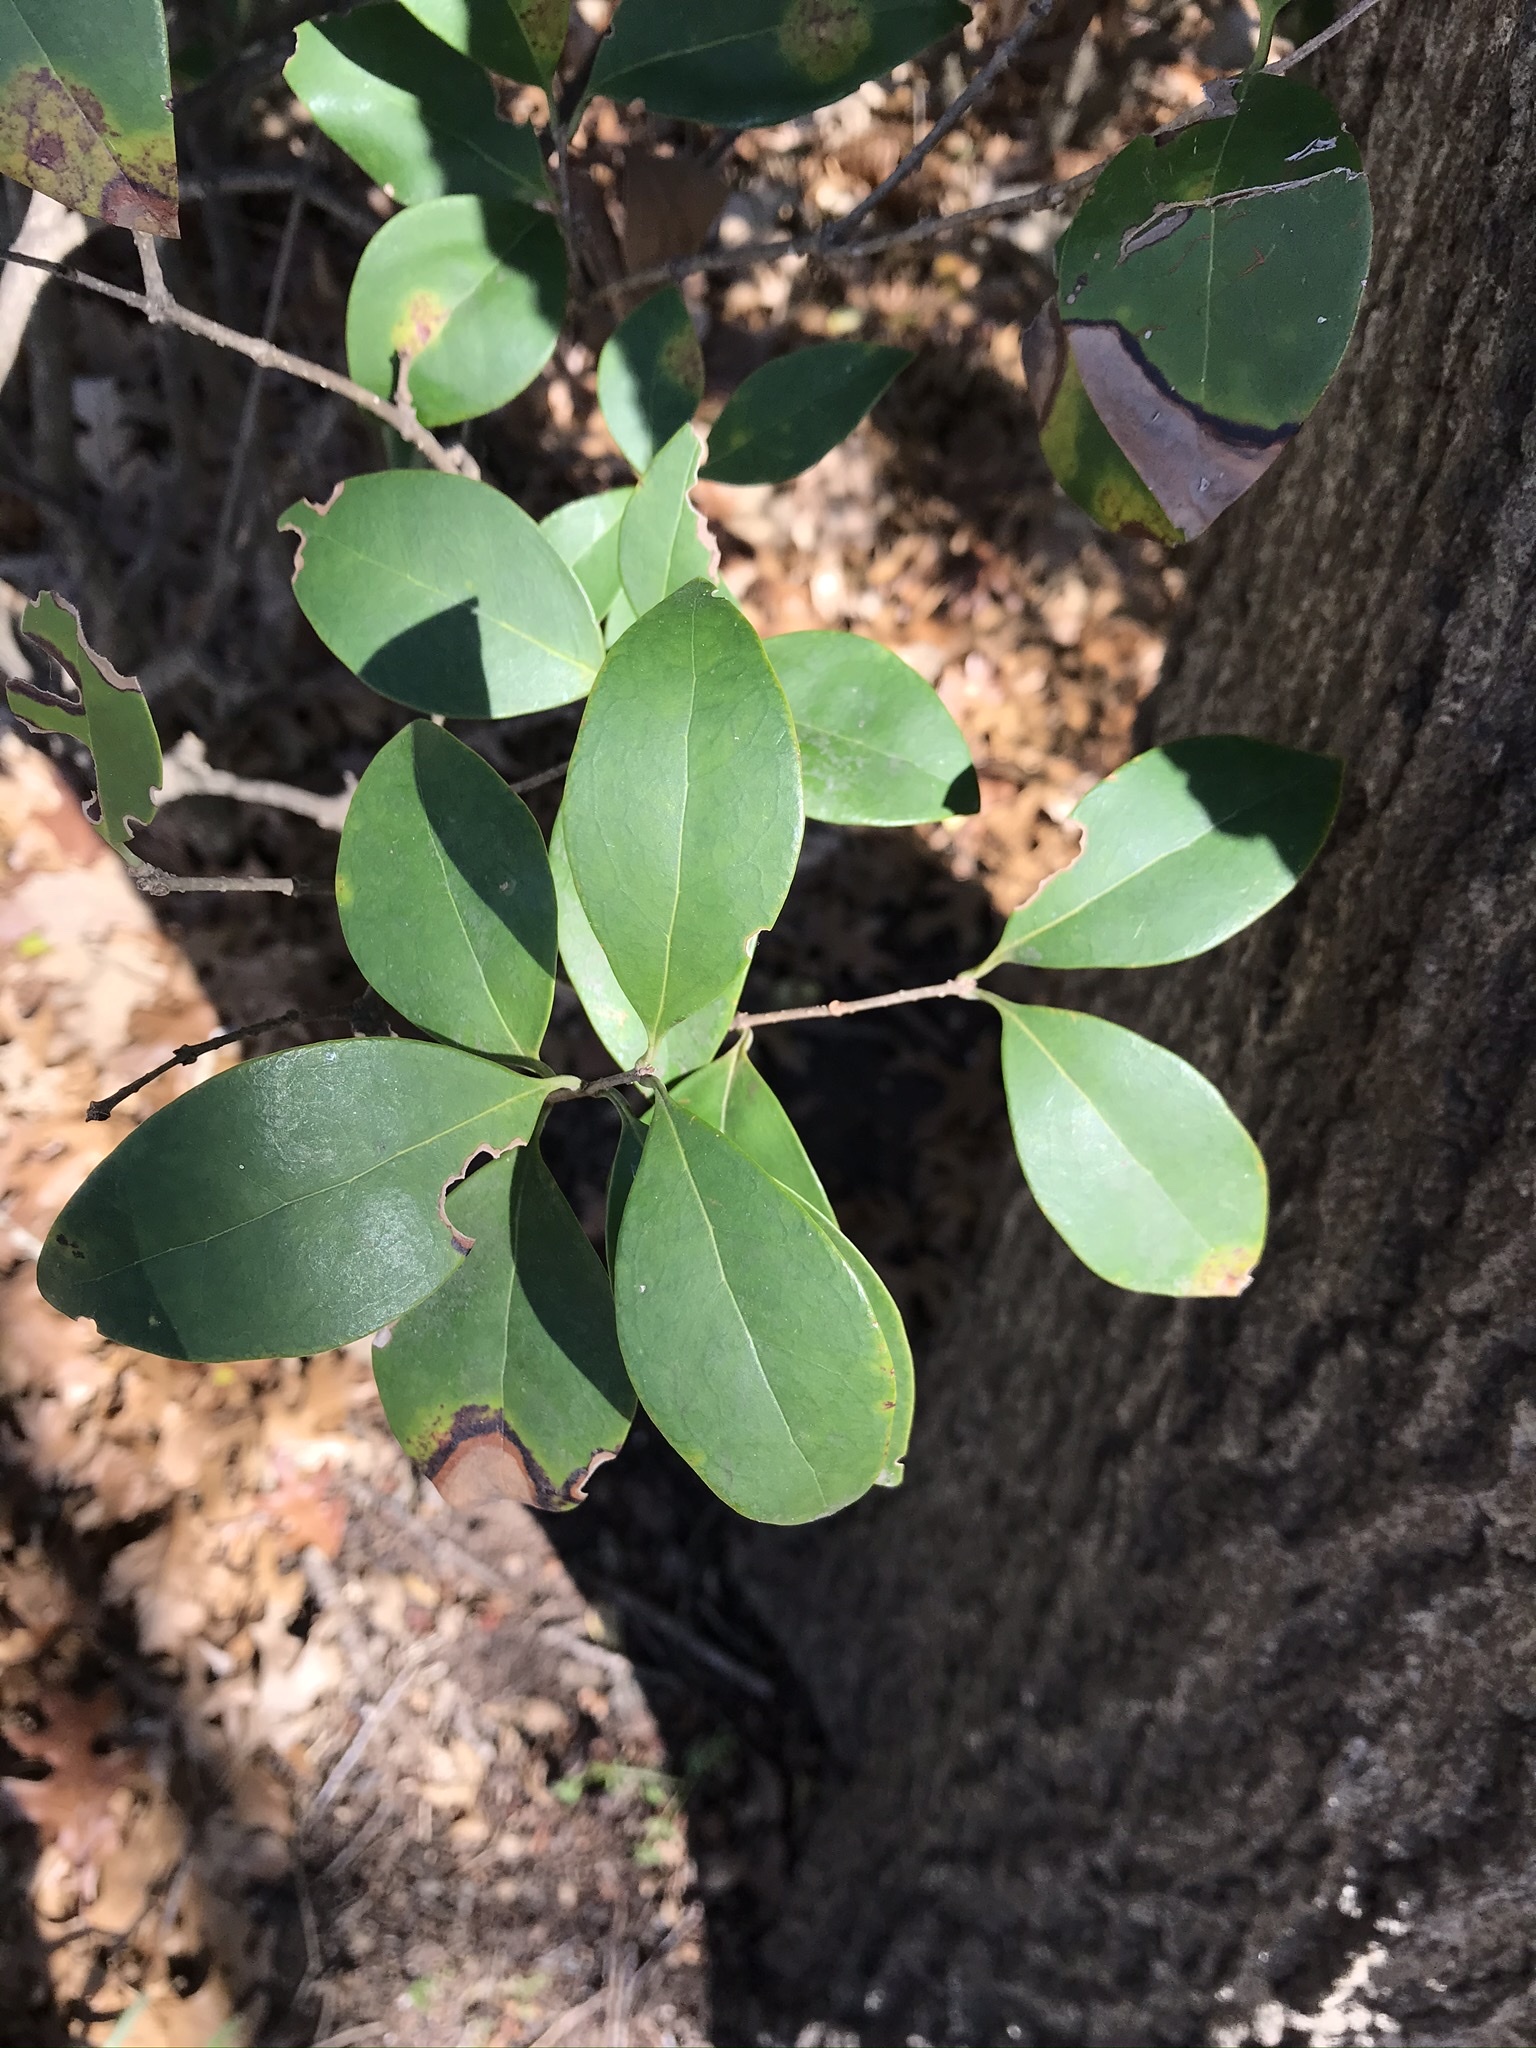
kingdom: Plantae
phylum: Tracheophyta
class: Magnoliopsida
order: Lamiales
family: Oleaceae
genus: Ligustrum
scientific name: Ligustrum lucidum
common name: Glossy privet
